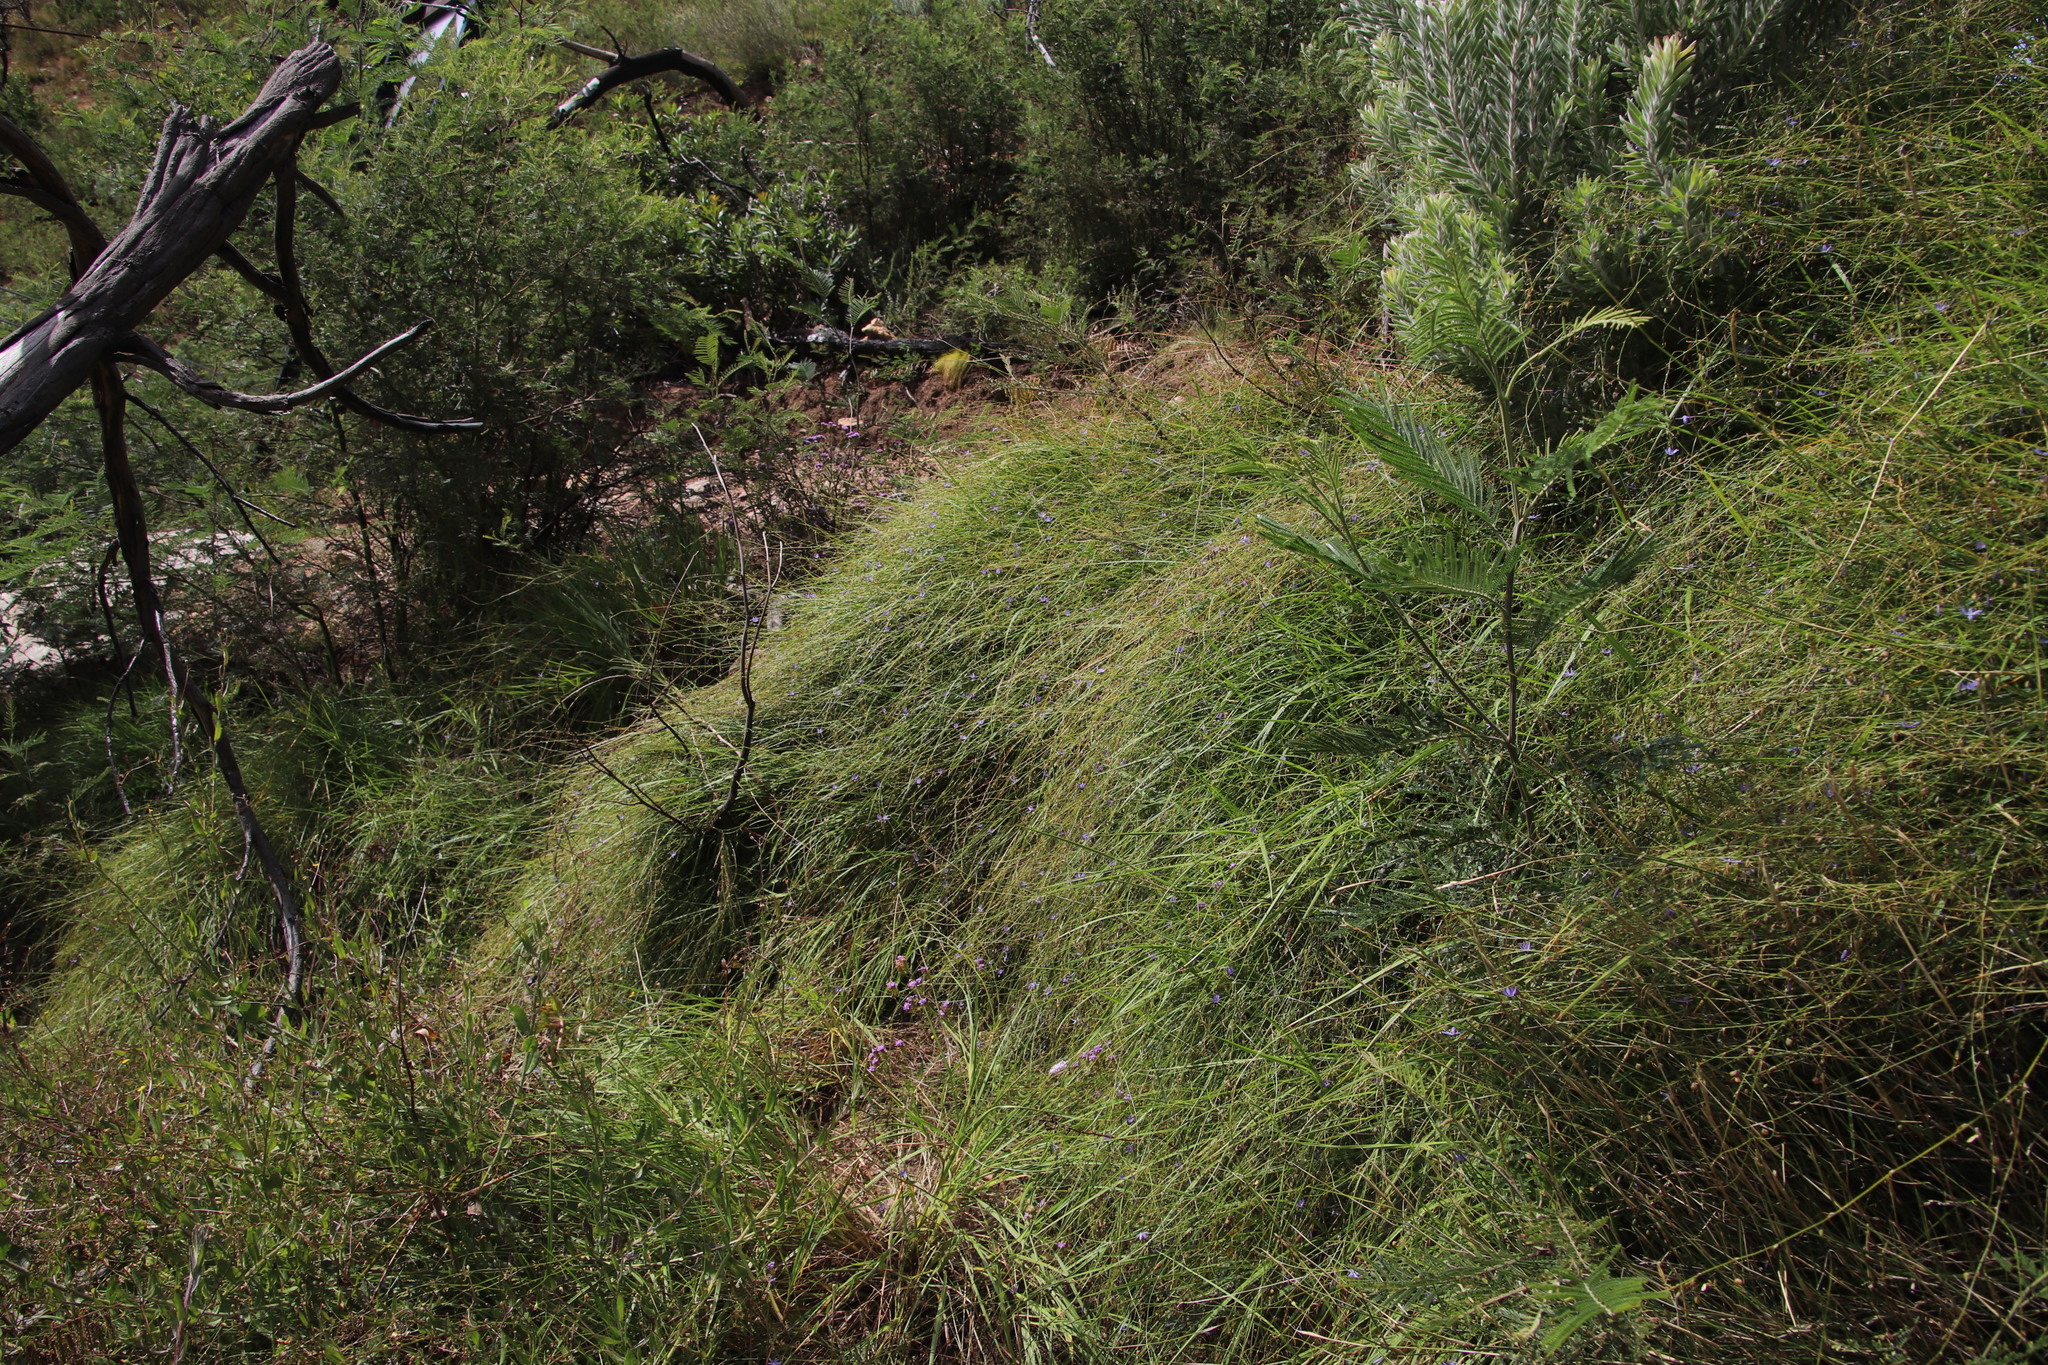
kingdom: Plantae
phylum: Tracheophyta
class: Liliopsida
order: Asparagales
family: Asphodelaceae
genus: Caesia
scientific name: Caesia contorta
